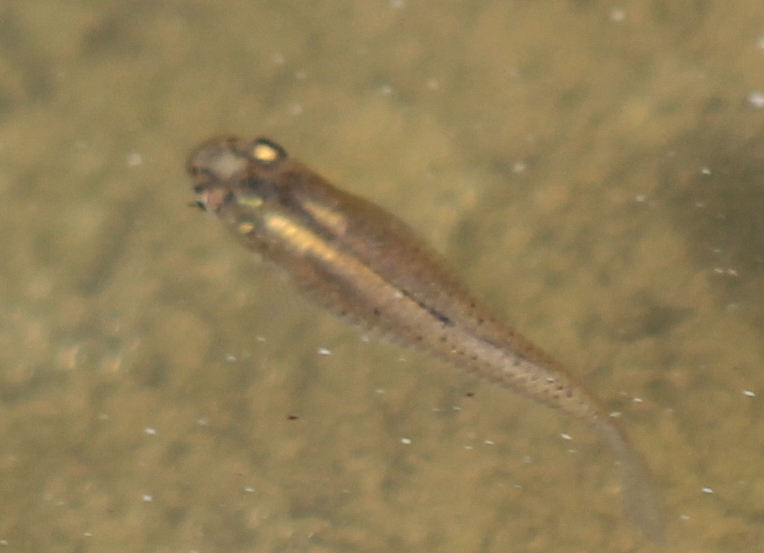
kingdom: Animalia
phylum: Chordata
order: Cyprinodontiformes
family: Poeciliidae
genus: Gambusia
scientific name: Gambusia affinis
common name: Mosquitofish
